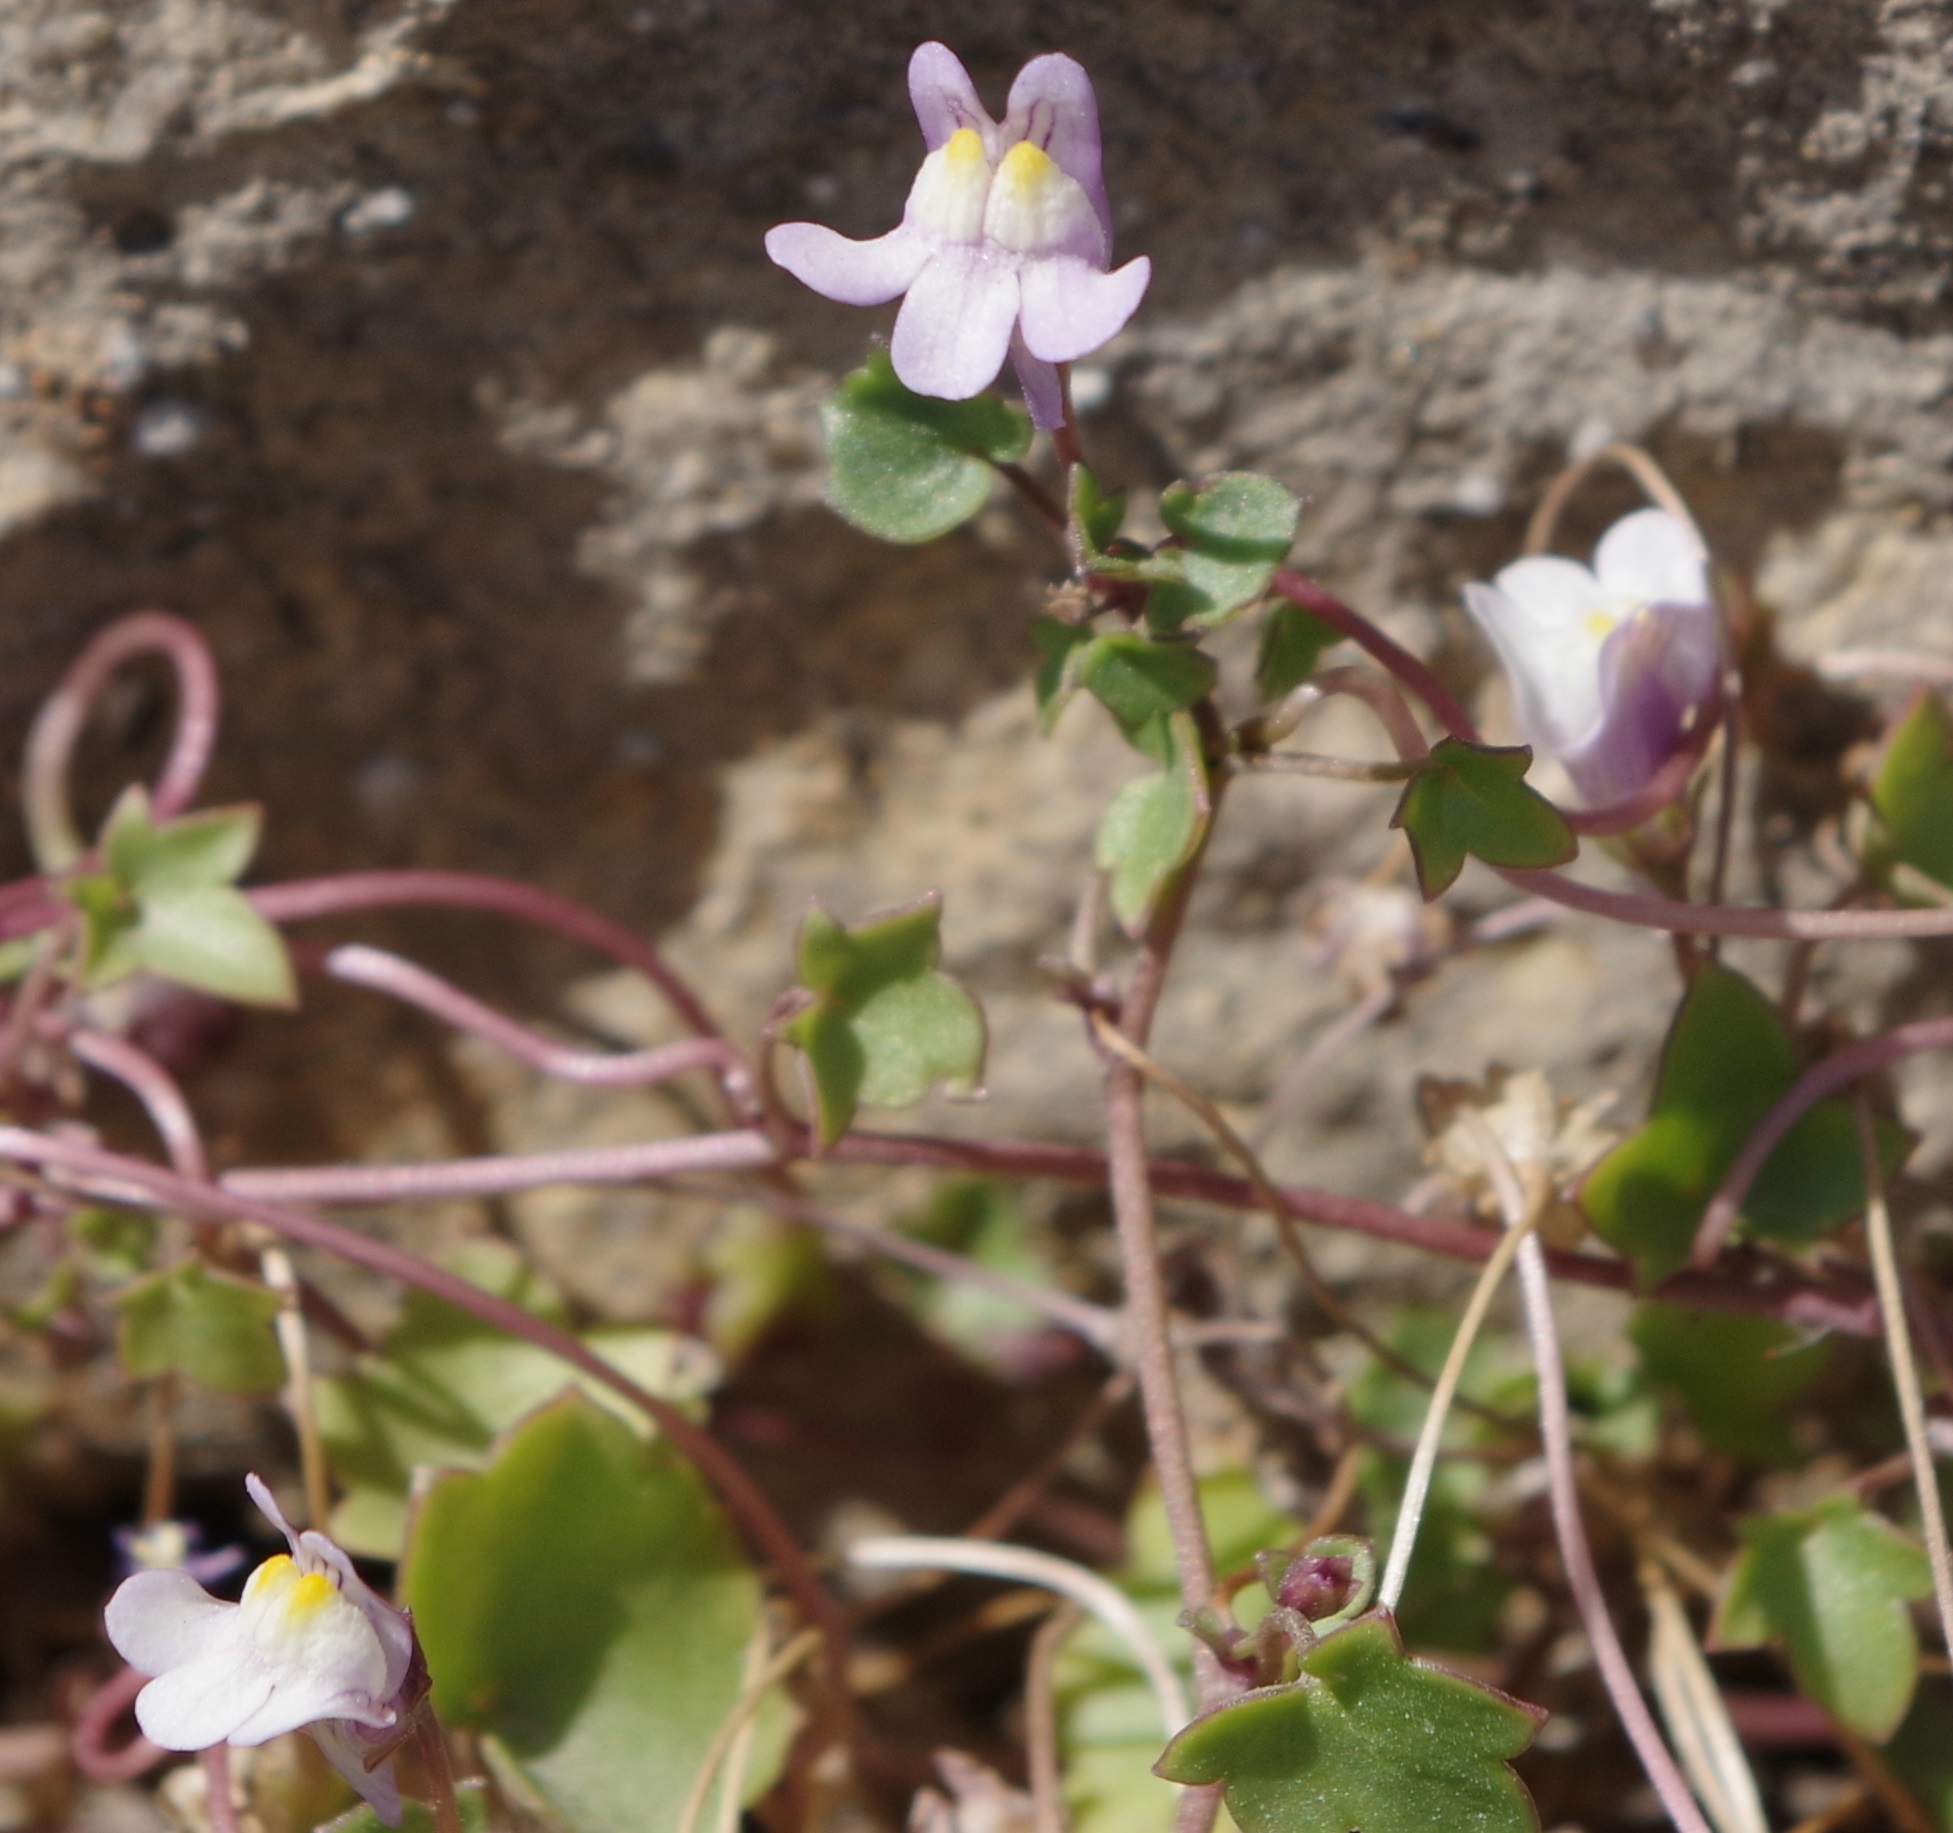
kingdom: Plantae
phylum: Tracheophyta
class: Magnoliopsida
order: Lamiales
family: Plantaginaceae
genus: Cymbalaria
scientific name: Cymbalaria muralis
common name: Ivy-leaved toadflax
